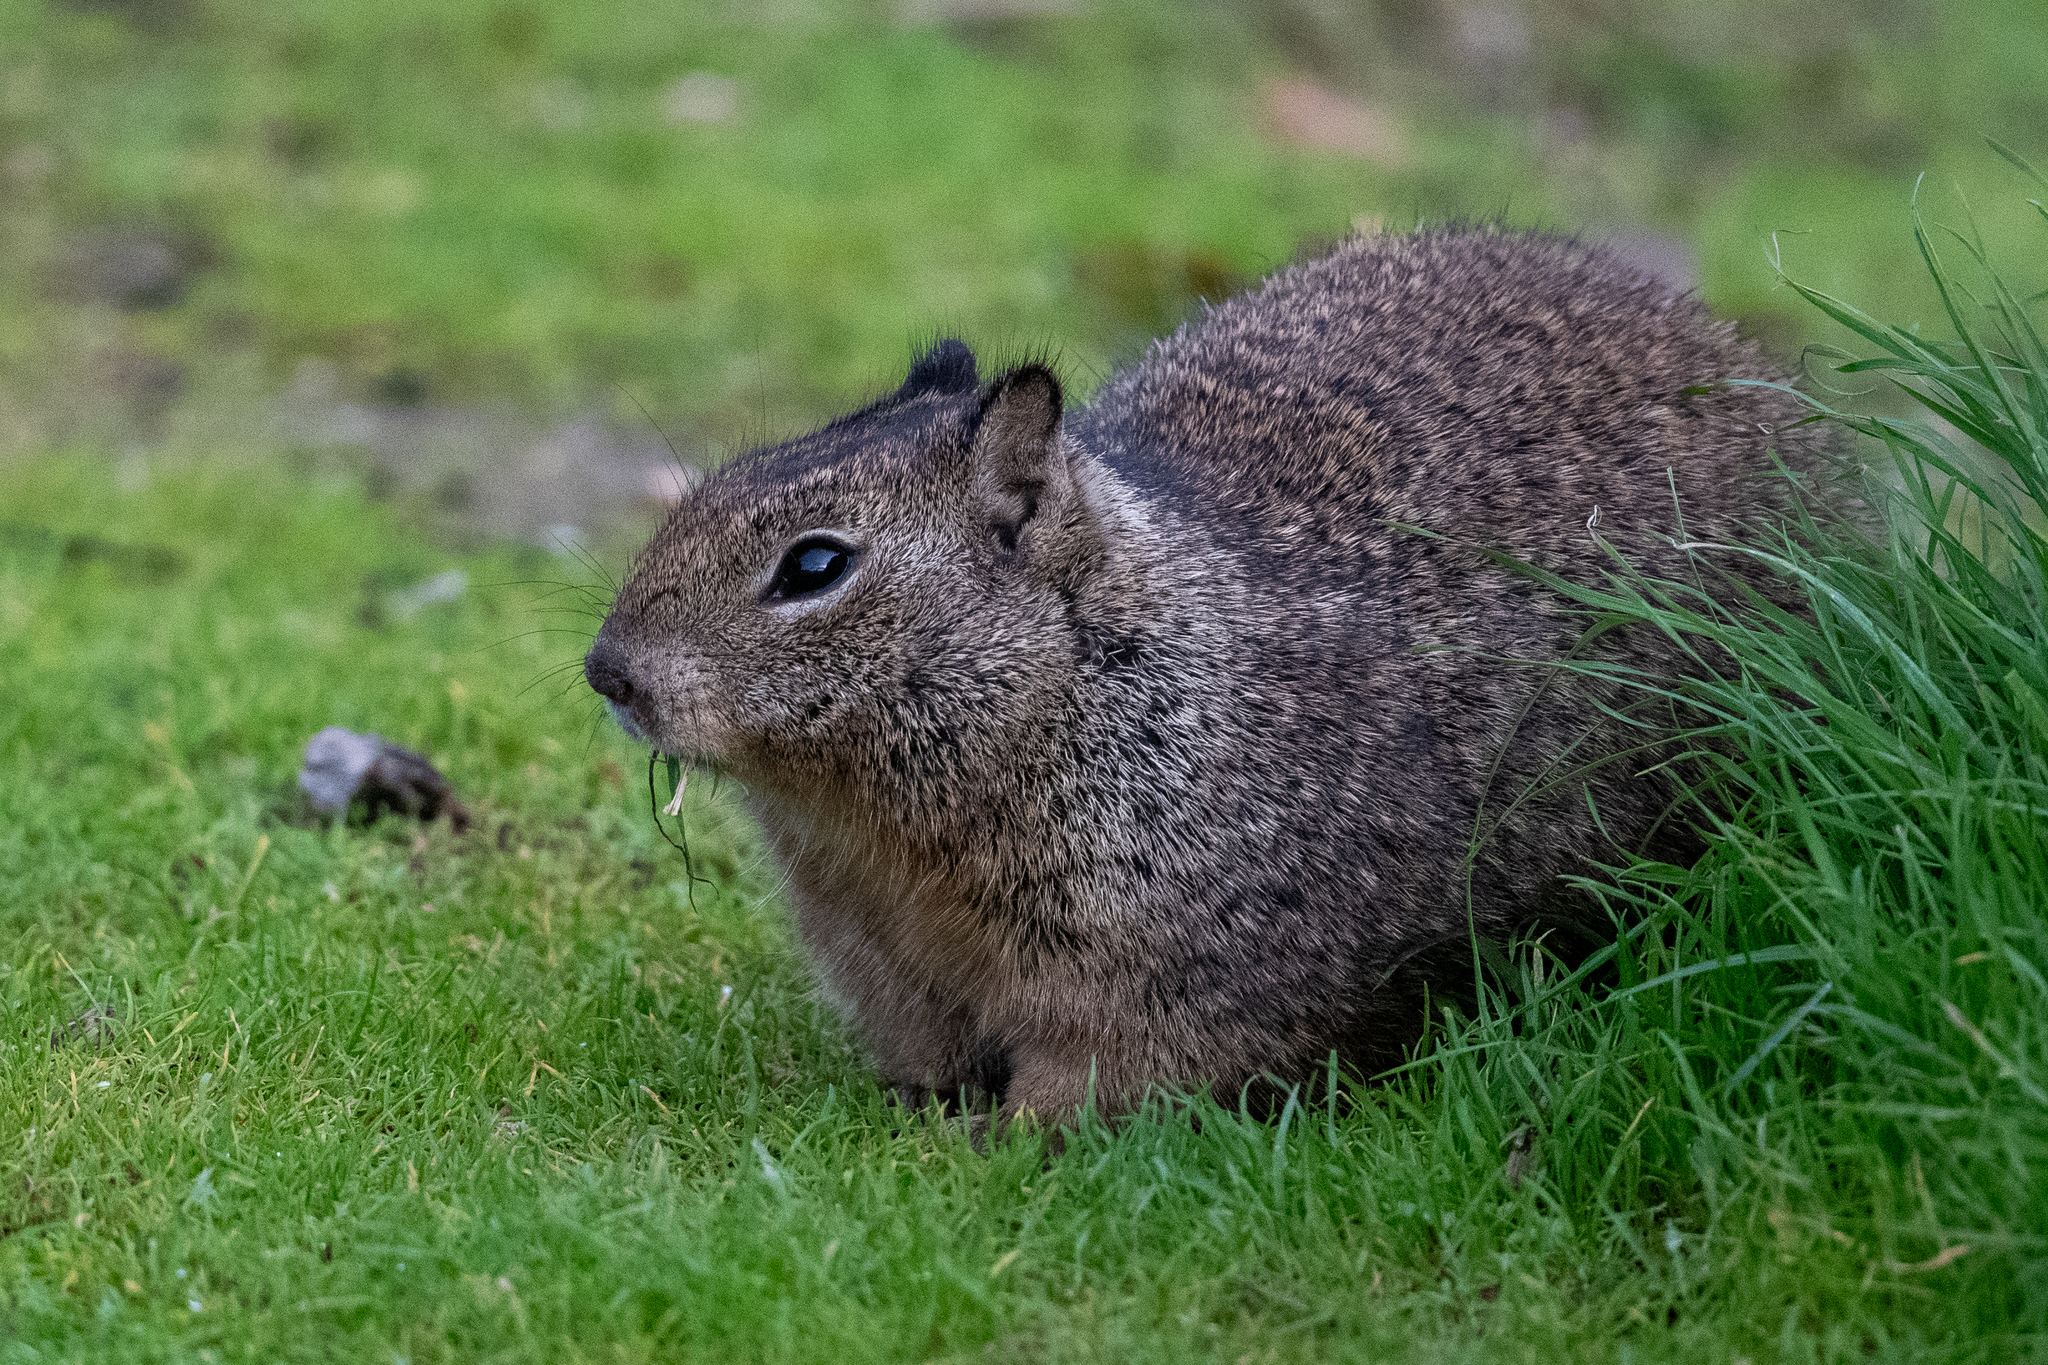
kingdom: Animalia
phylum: Chordata
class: Mammalia
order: Rodentia
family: Sciuridae
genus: Otospermophilus
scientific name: Otospermophilus beecheyi
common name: California ground squirrel
